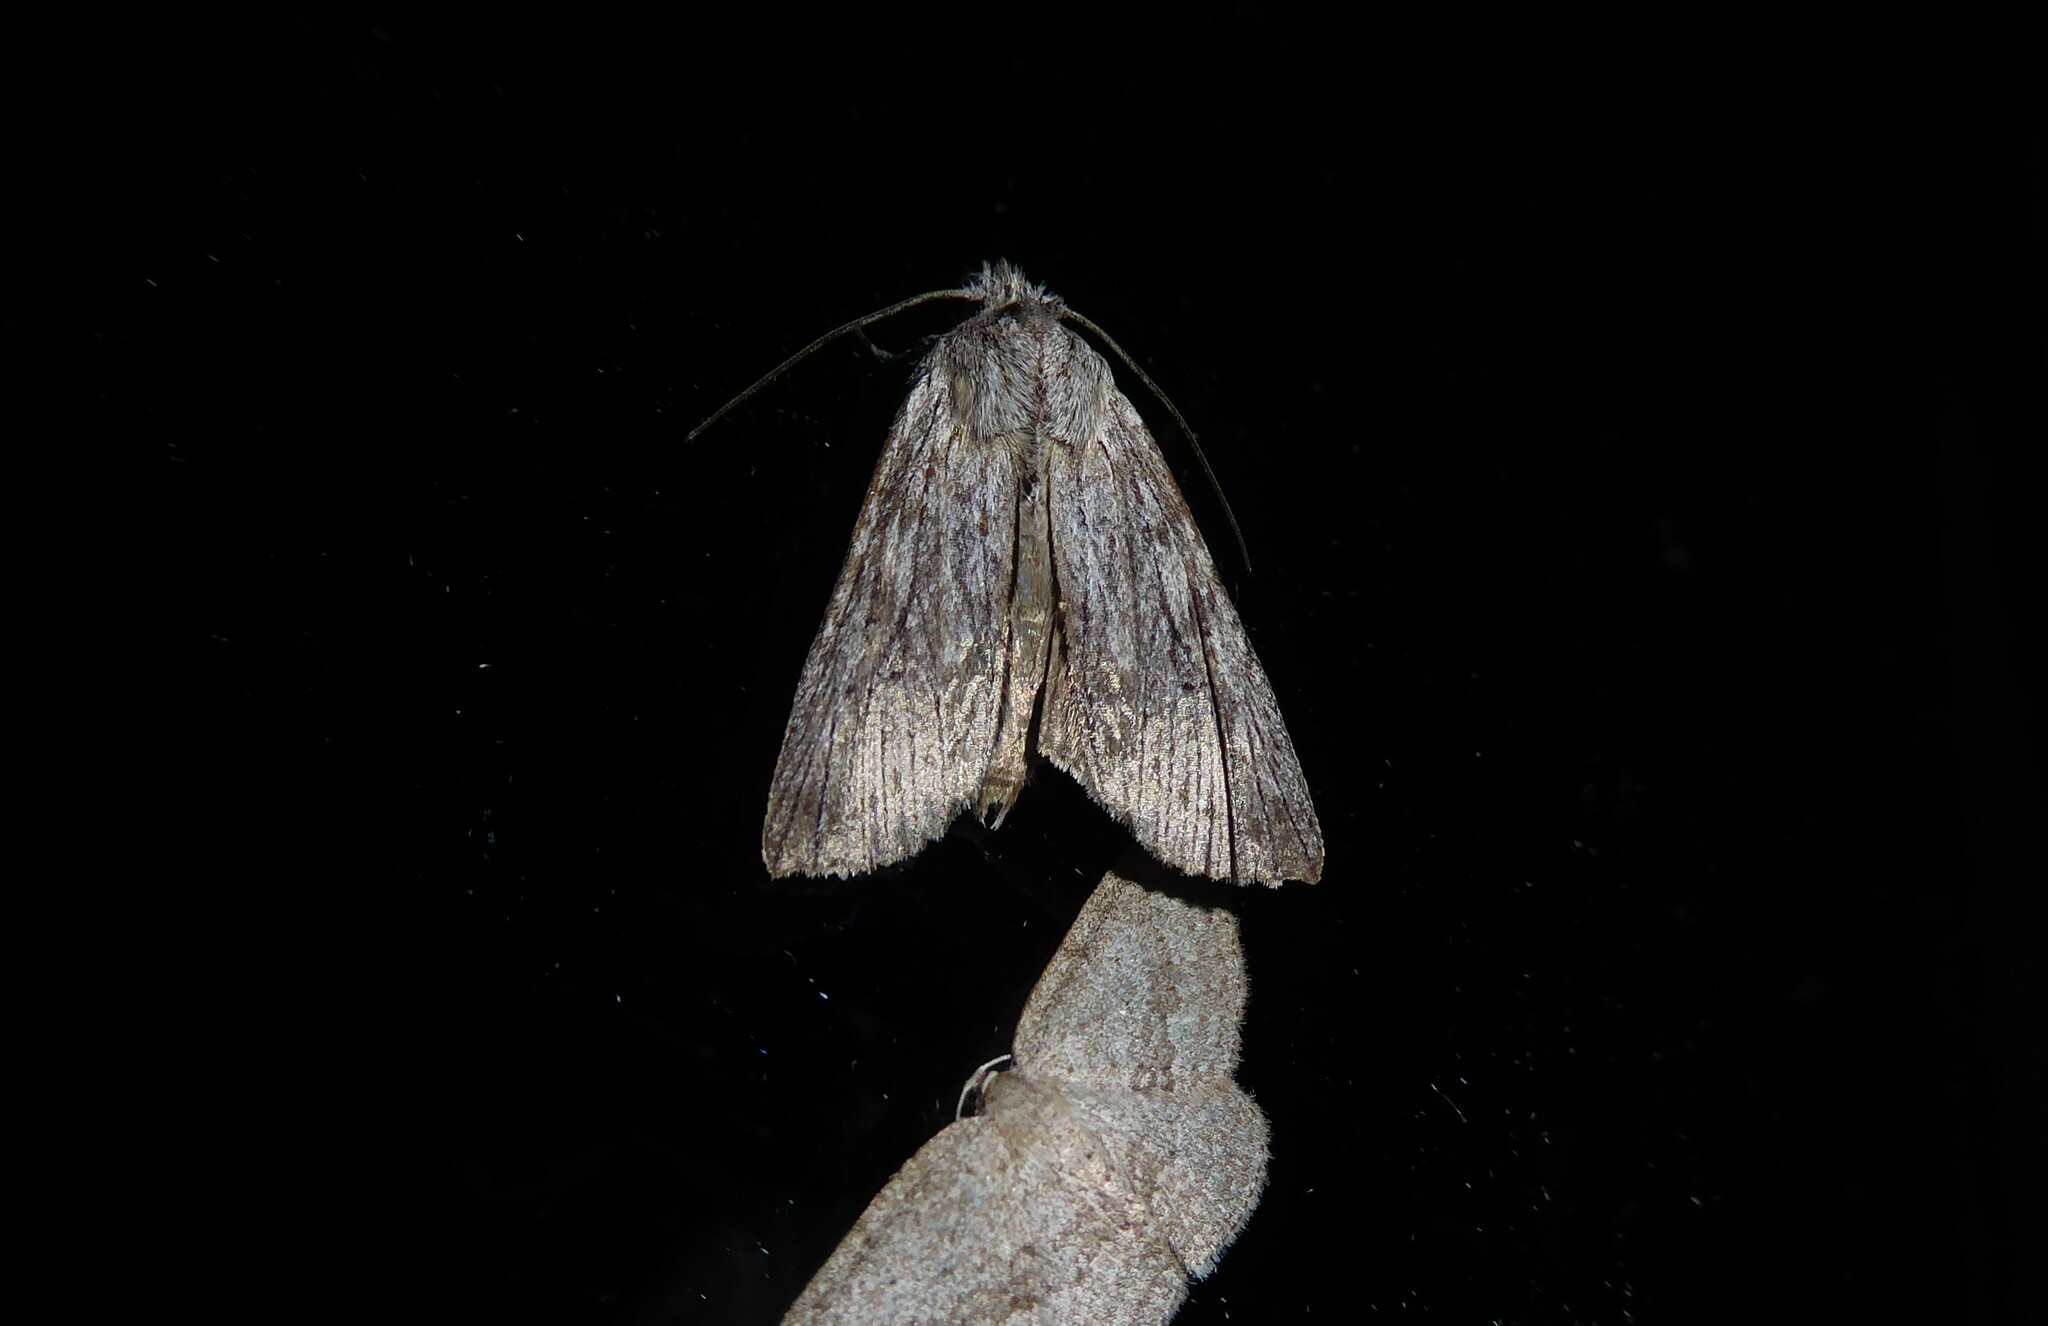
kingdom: Animalia
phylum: Arthropoda
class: Insecta
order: Lepidoptera
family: Noctuidae
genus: Physetica
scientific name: Physetica phricias
